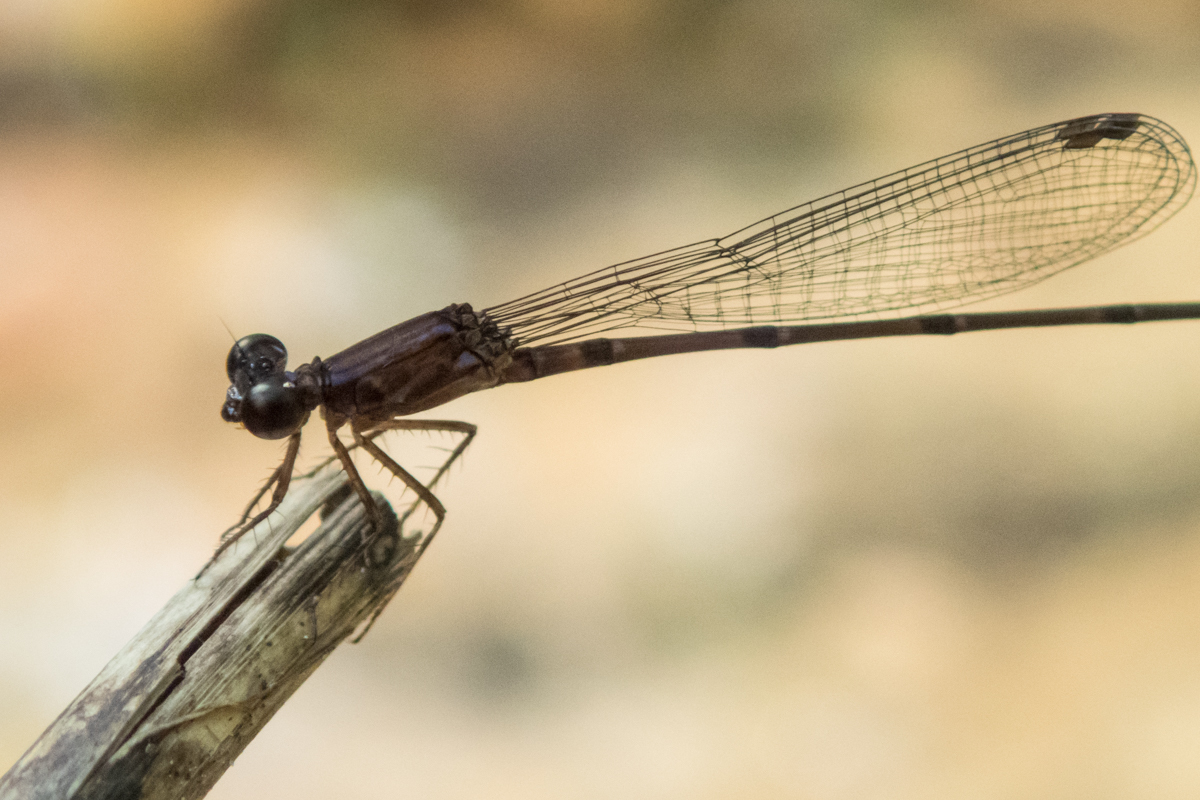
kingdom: Animalia
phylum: Arthropoda
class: Insecta
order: Odonata
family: Coenagrionidae
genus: Mortonagrion
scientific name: Mortonagrion falcatum
